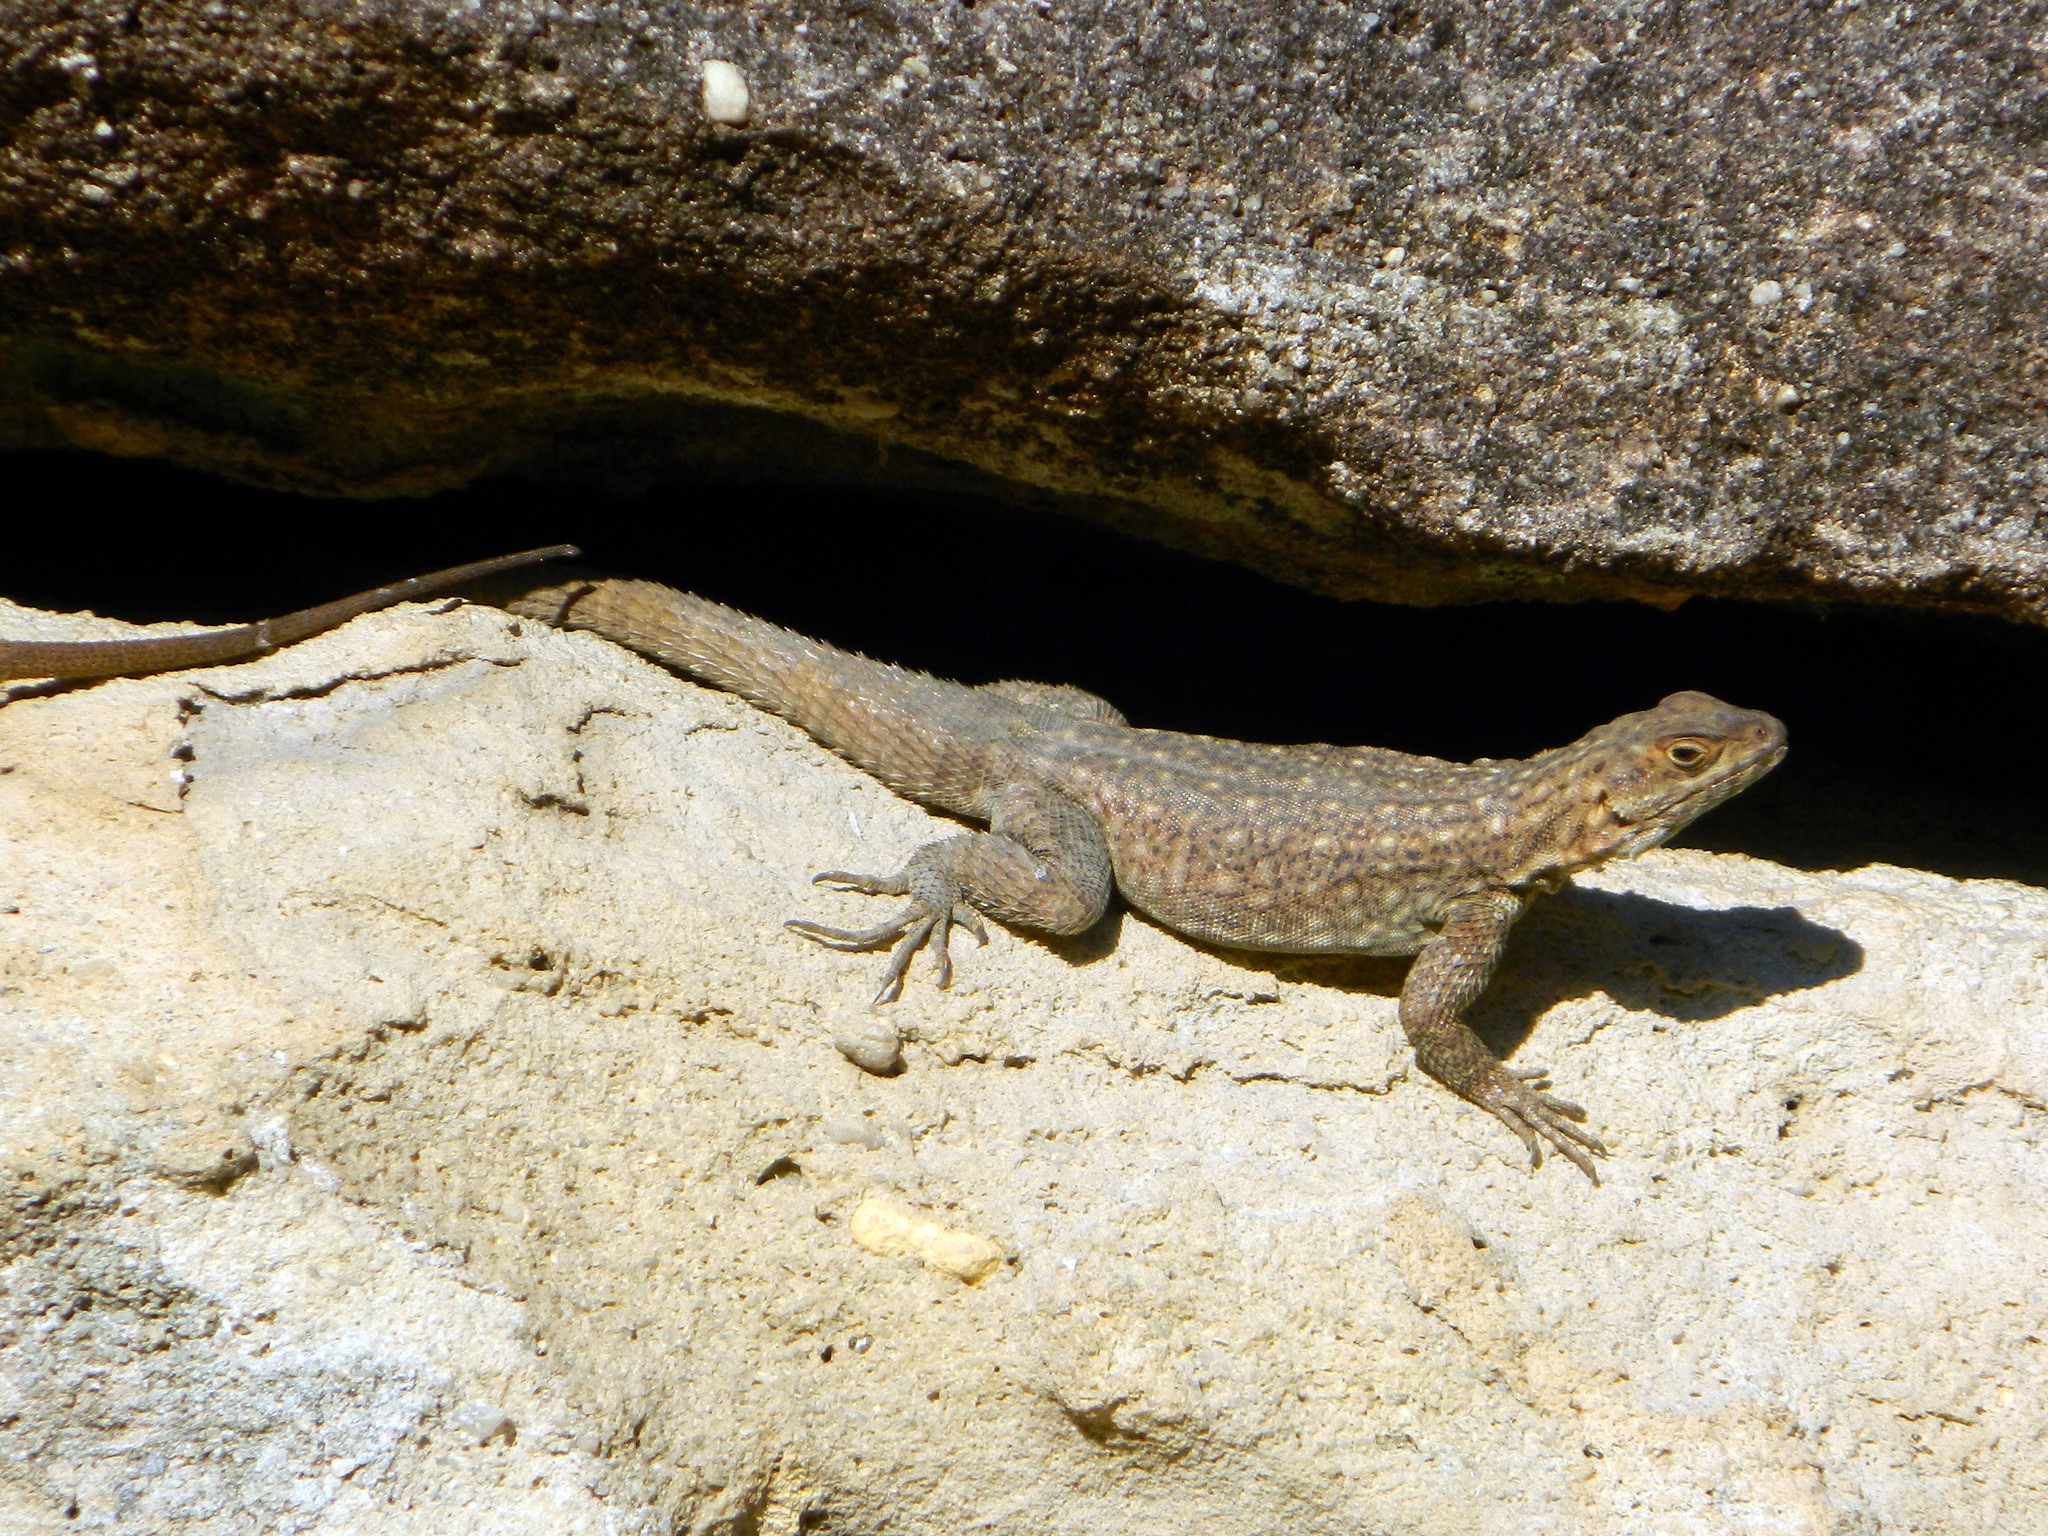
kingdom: Animalia
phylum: Chordata
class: Squamata
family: Opluridae
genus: Oplurus
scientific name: Oplurus quadrimaculatus
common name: Duméril's madagascar swift
